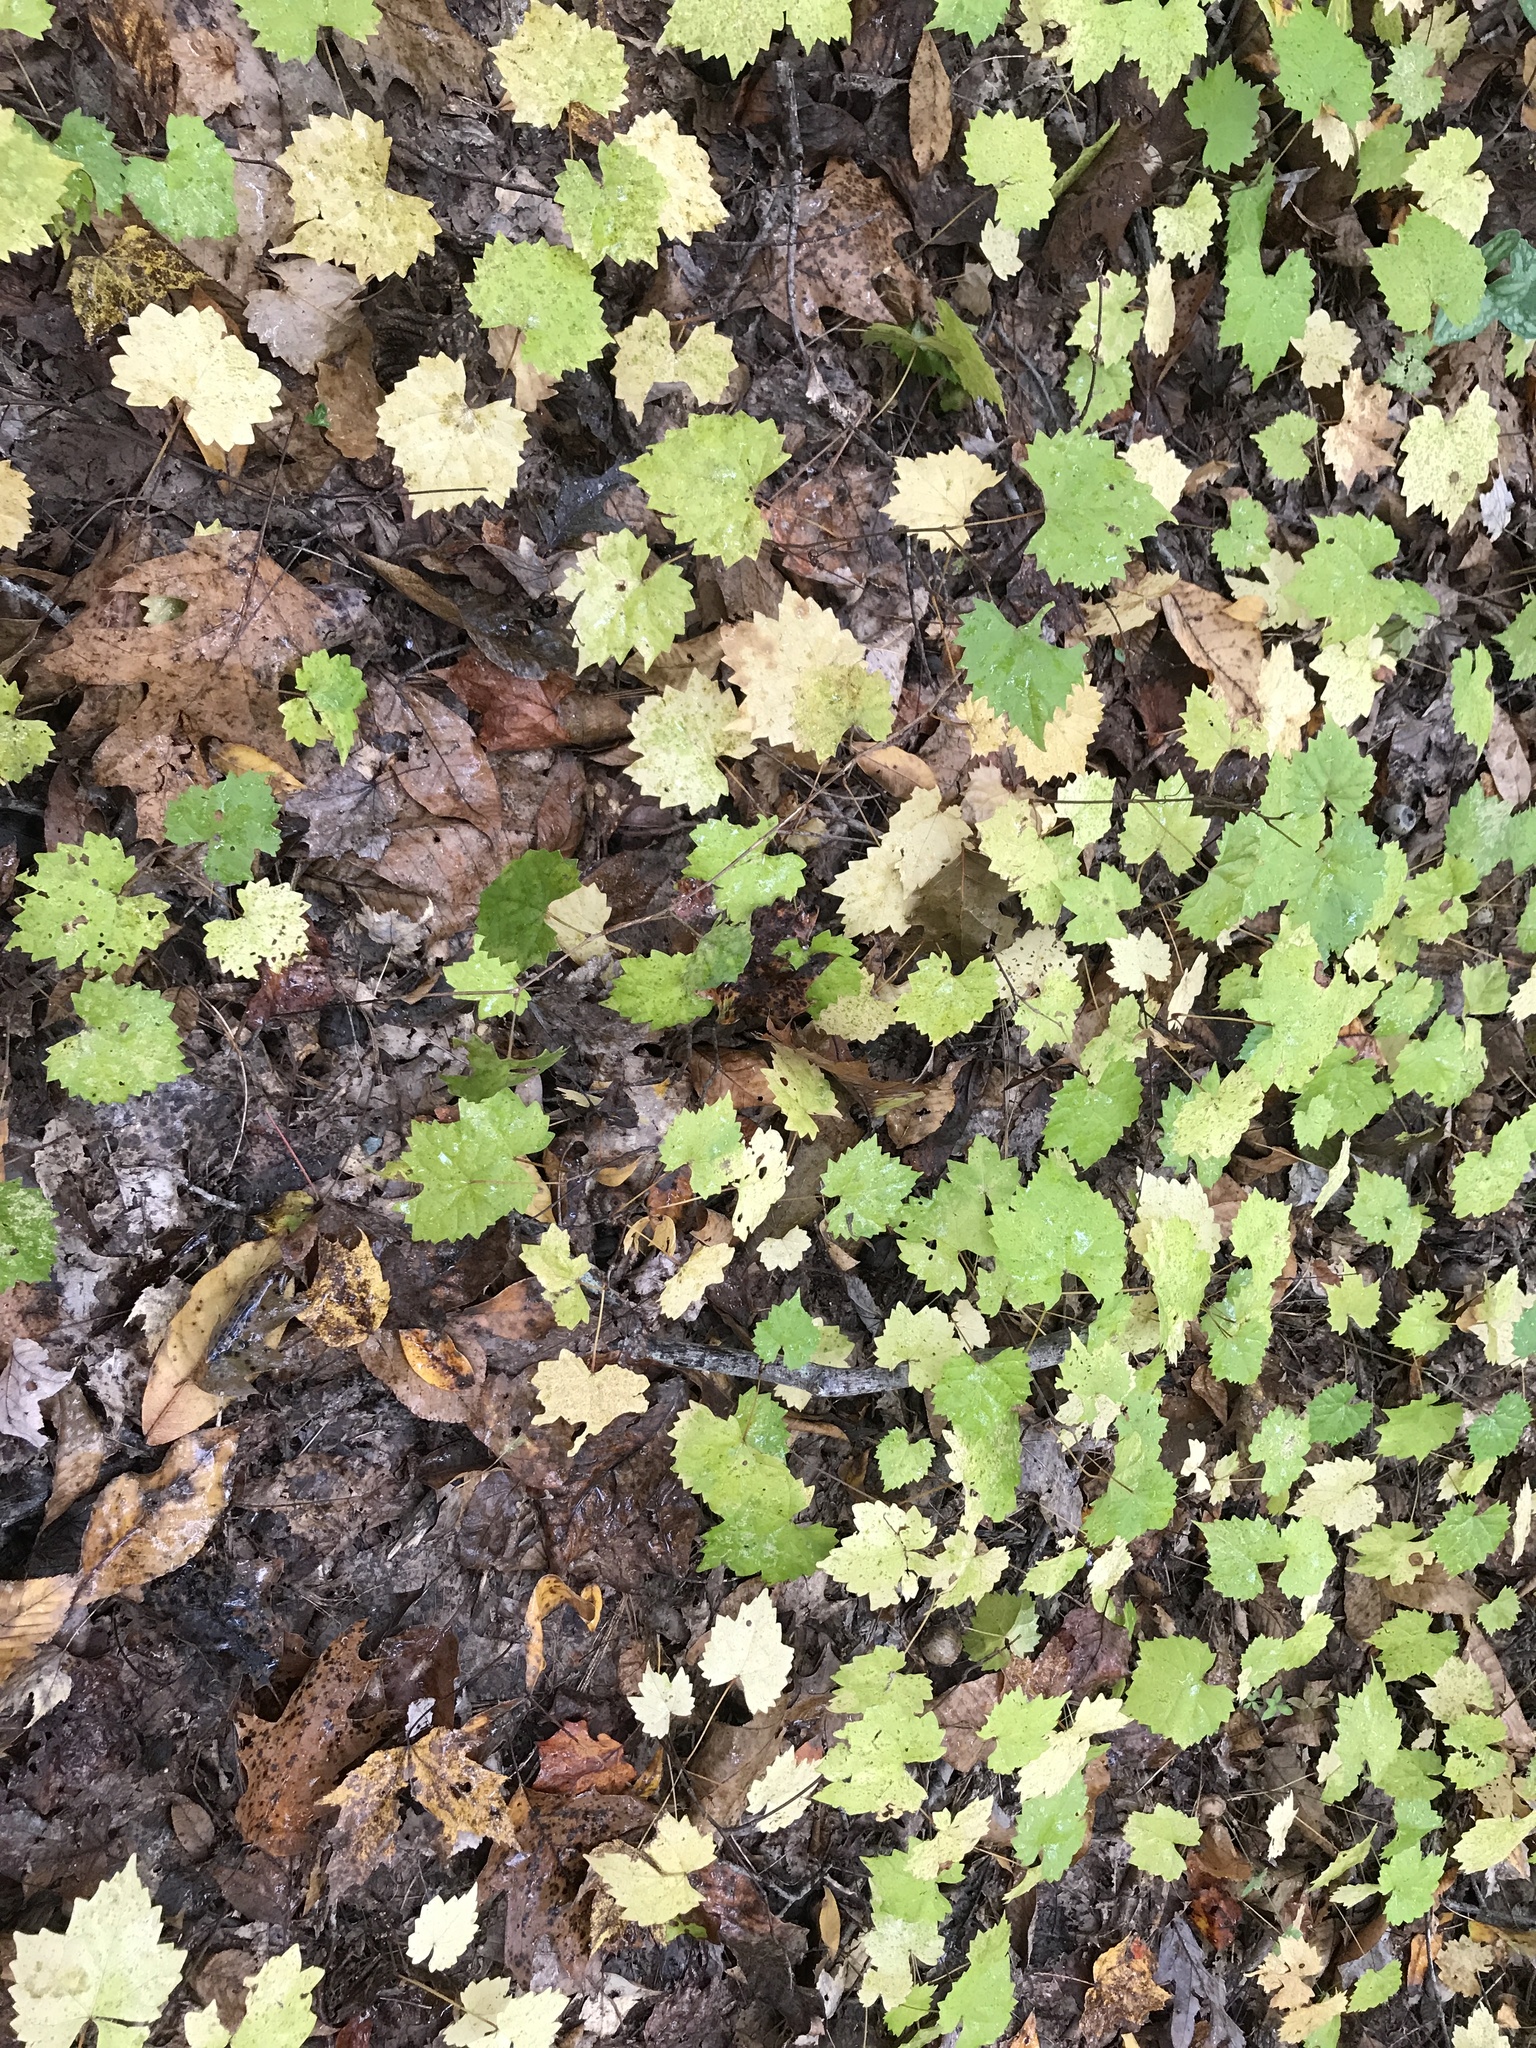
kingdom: Plantae
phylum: Tracheophyta
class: Magnoliopsida
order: Vitales
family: Vitaceae
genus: Vitis
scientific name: Vitis rotundifolia
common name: Muscadine grape
